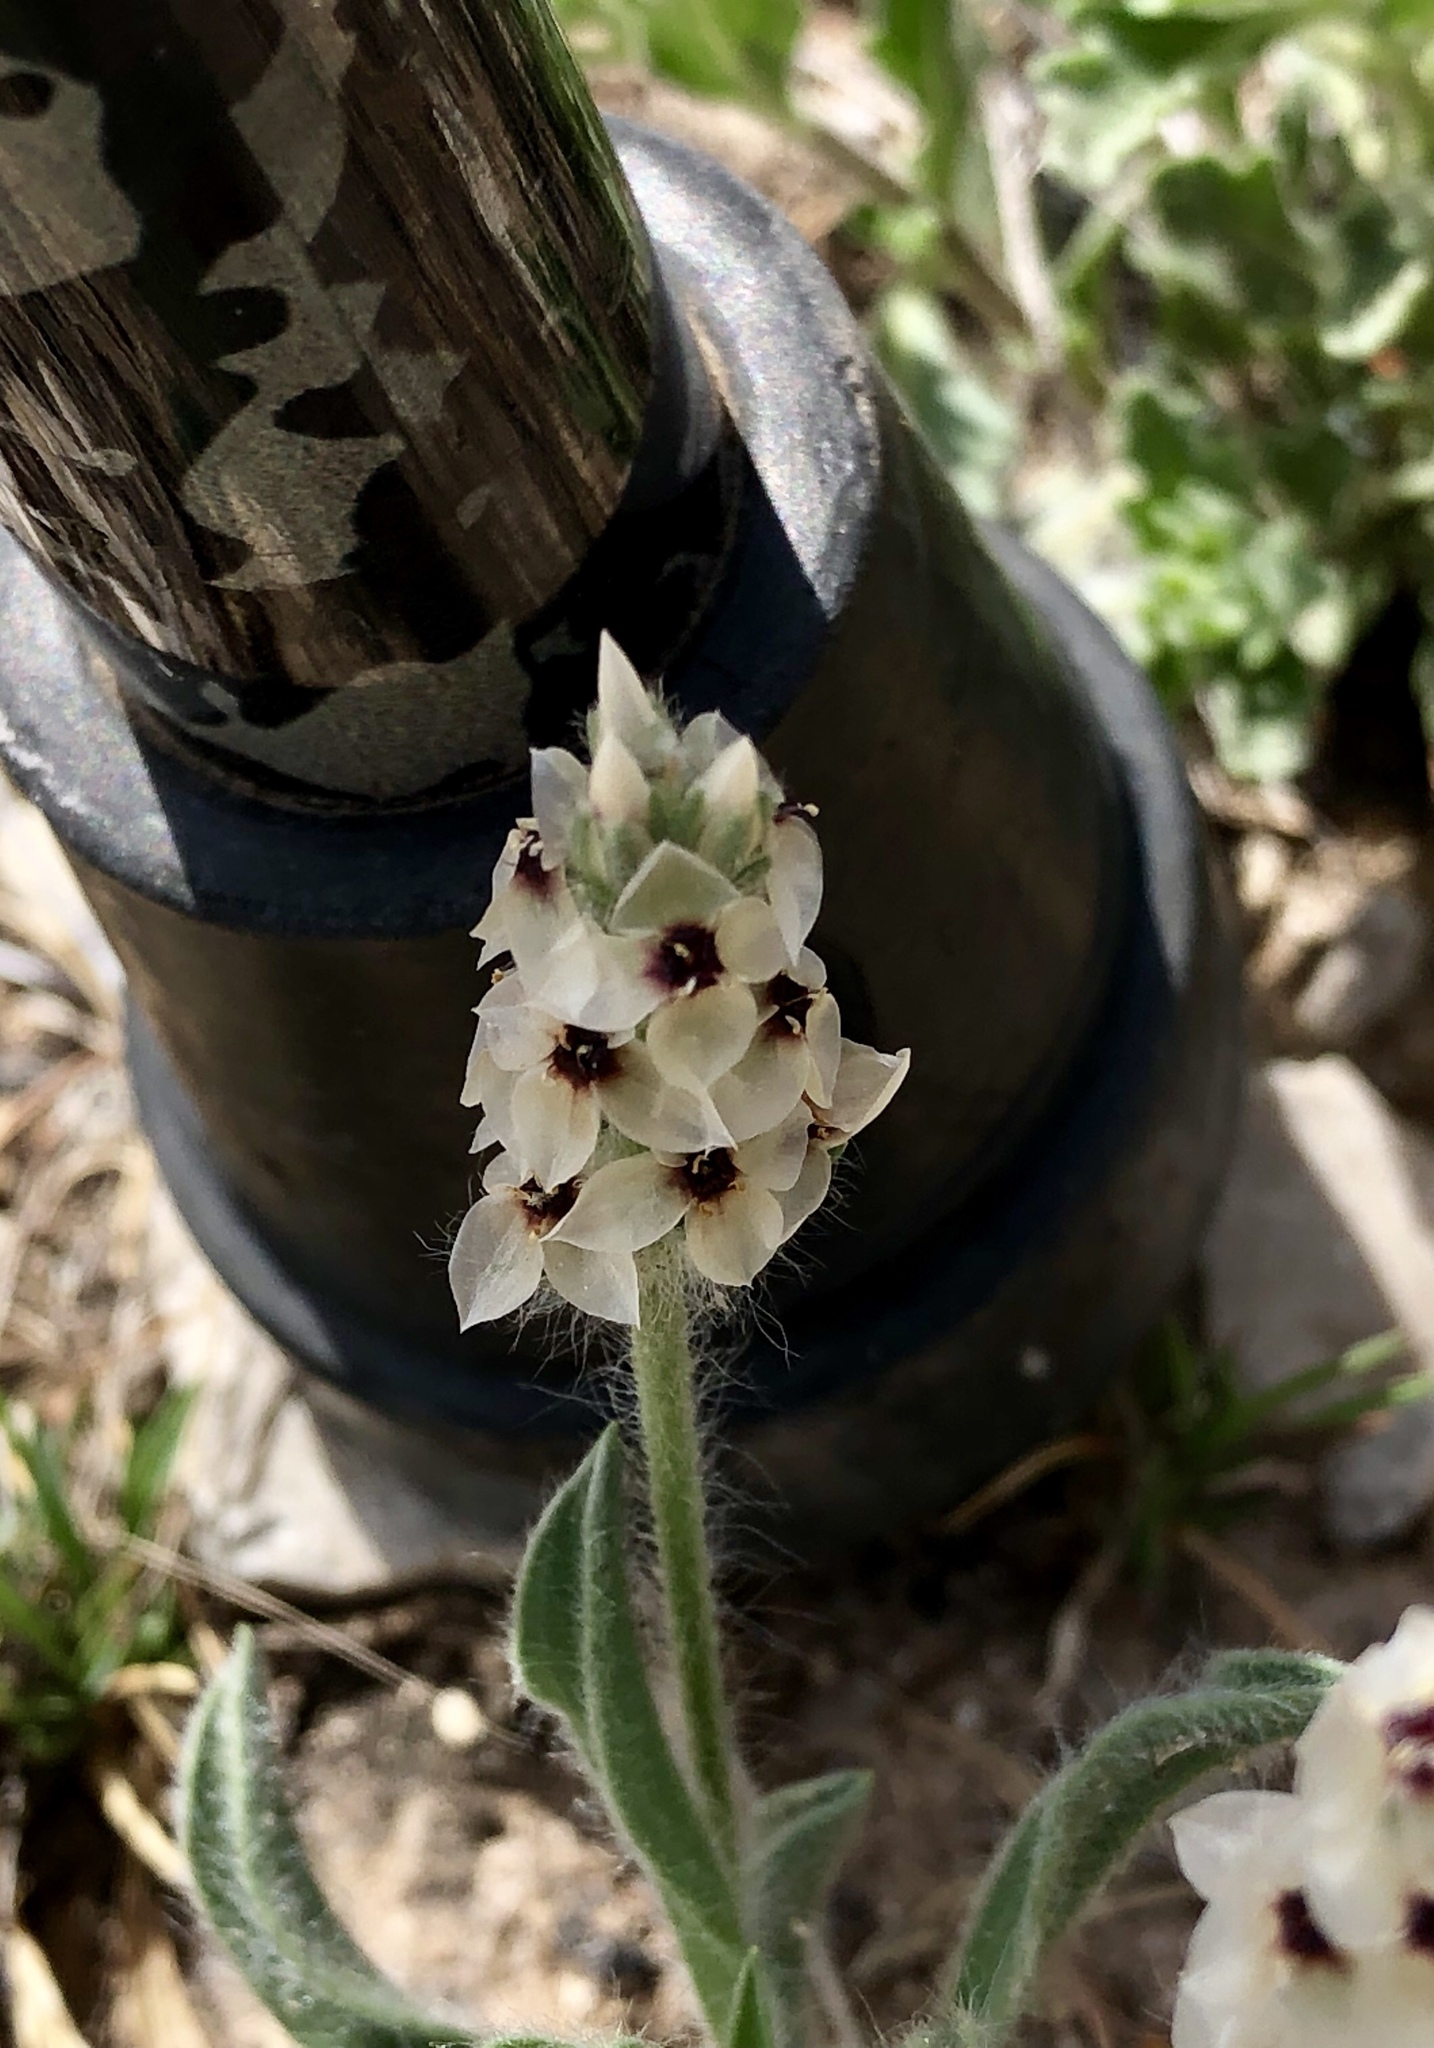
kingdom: Plantae
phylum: Tracheophyta
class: Magnoliopsida
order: Lamiales
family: Plantaginaceae
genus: Plantago
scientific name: Plantago helleri
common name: Heller's plantain
